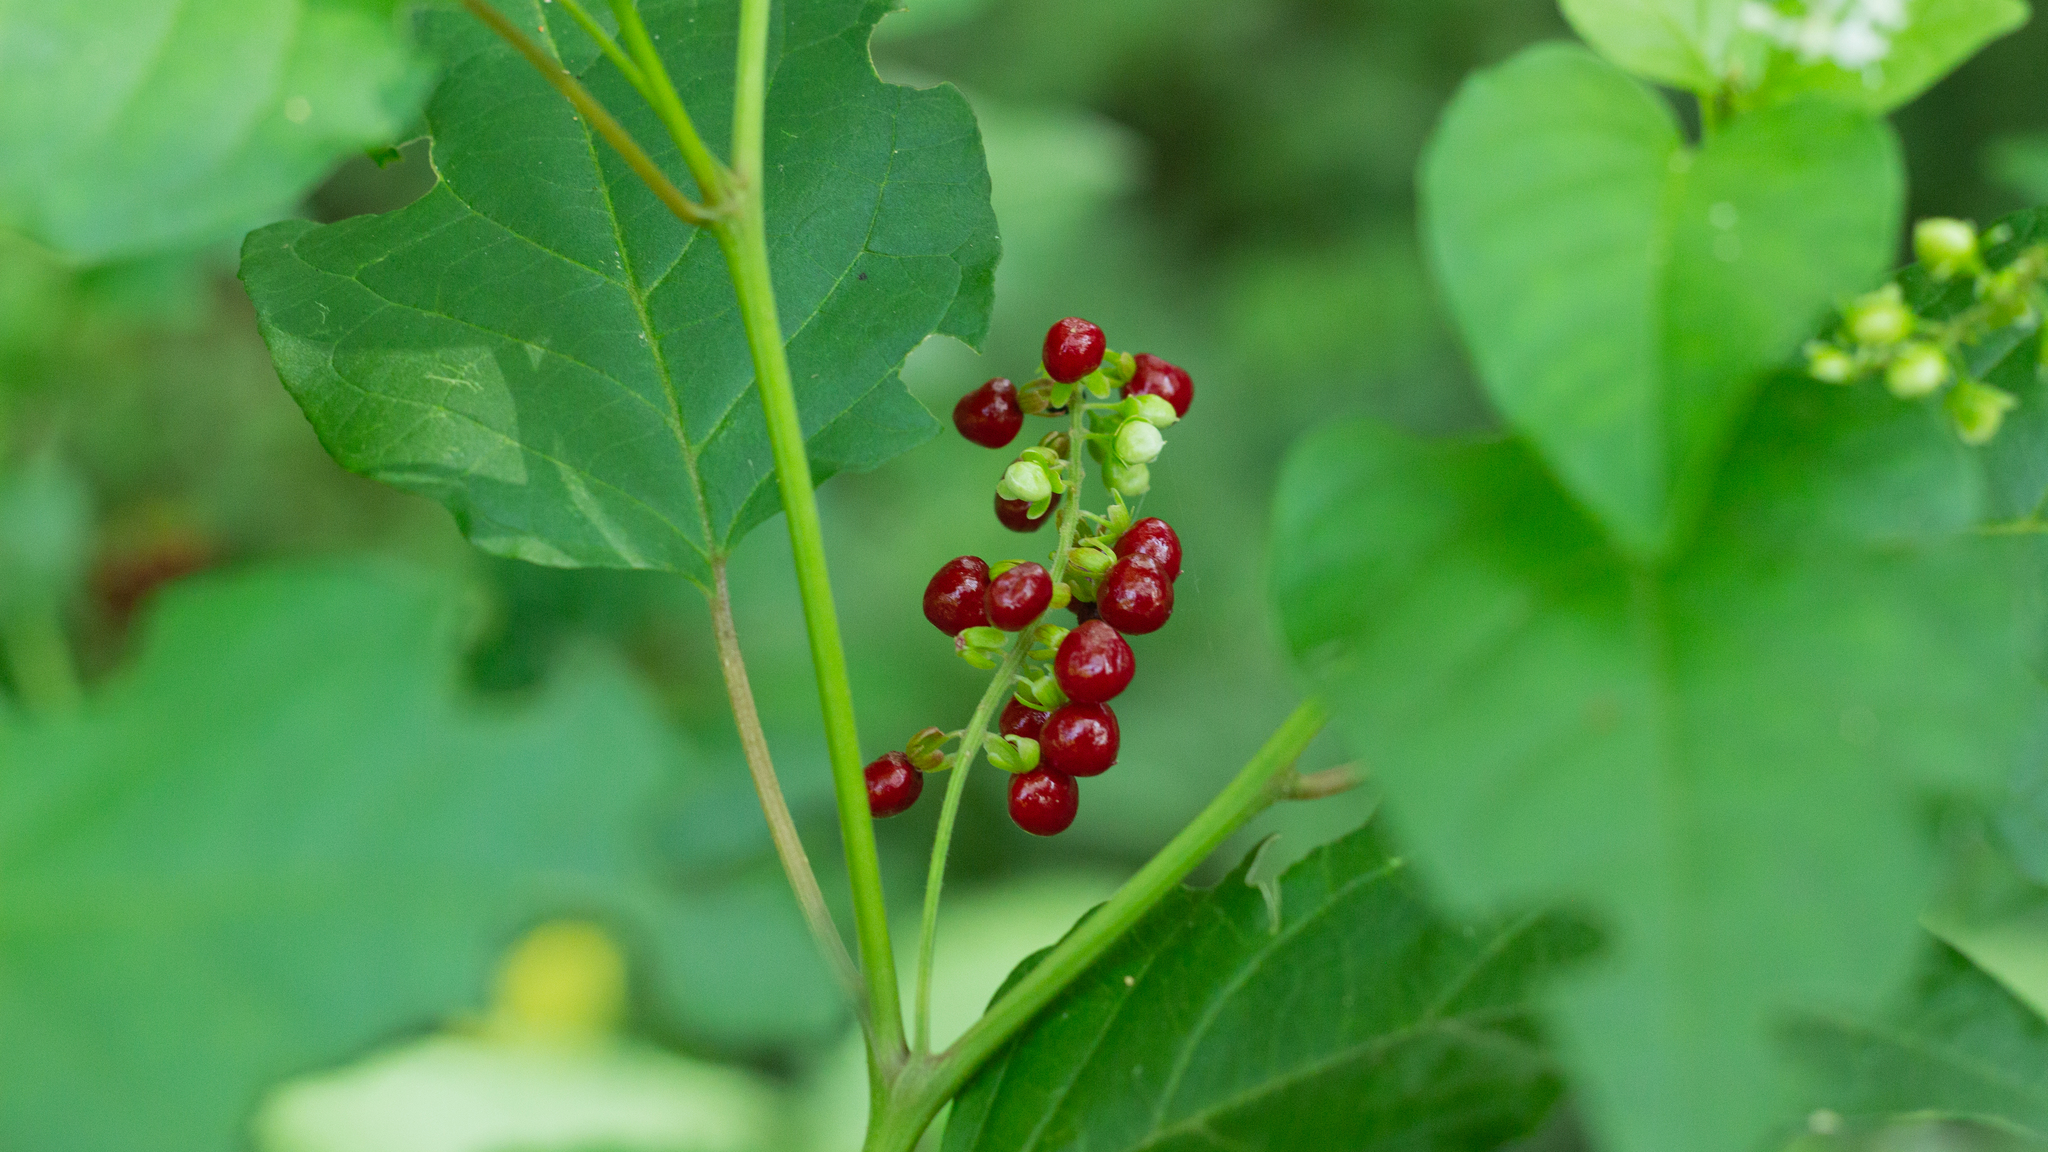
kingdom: Plantae
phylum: Tracheophyta
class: Magnoliopsida
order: Caryophyllales
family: Phytolaccaceae
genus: Rivina
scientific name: Rivina humilis
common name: Rougeplant
